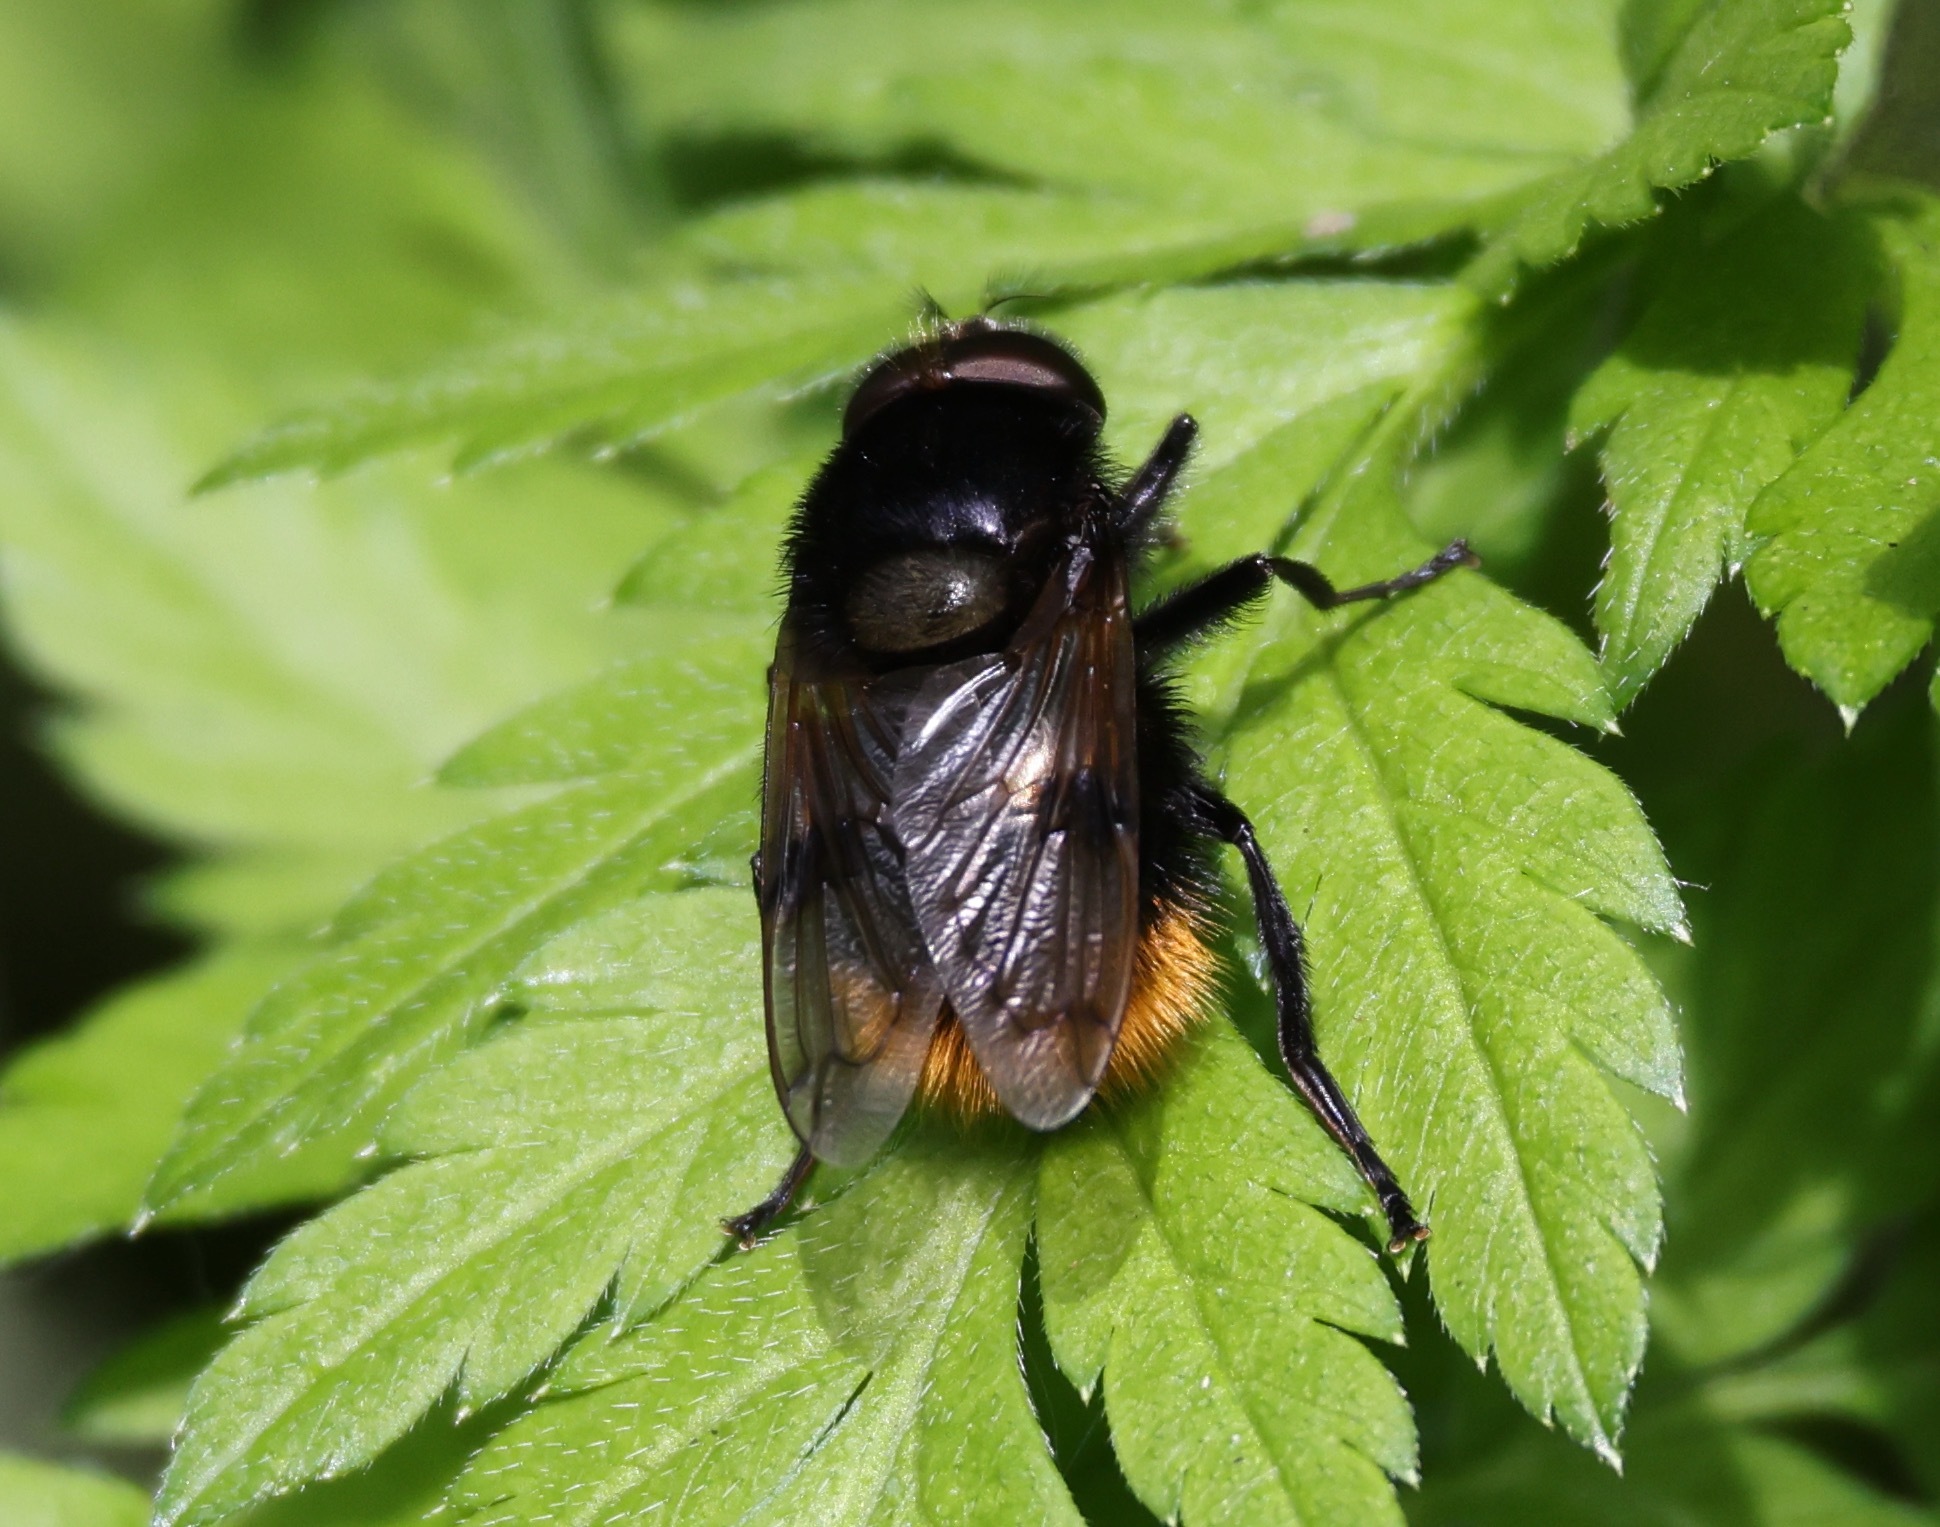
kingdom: Animalia
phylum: Arthropoda
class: Insecta
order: Diptera
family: Syrphidae
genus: Volucella
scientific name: Volucella bombylans
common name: Bumble bee hover fly
